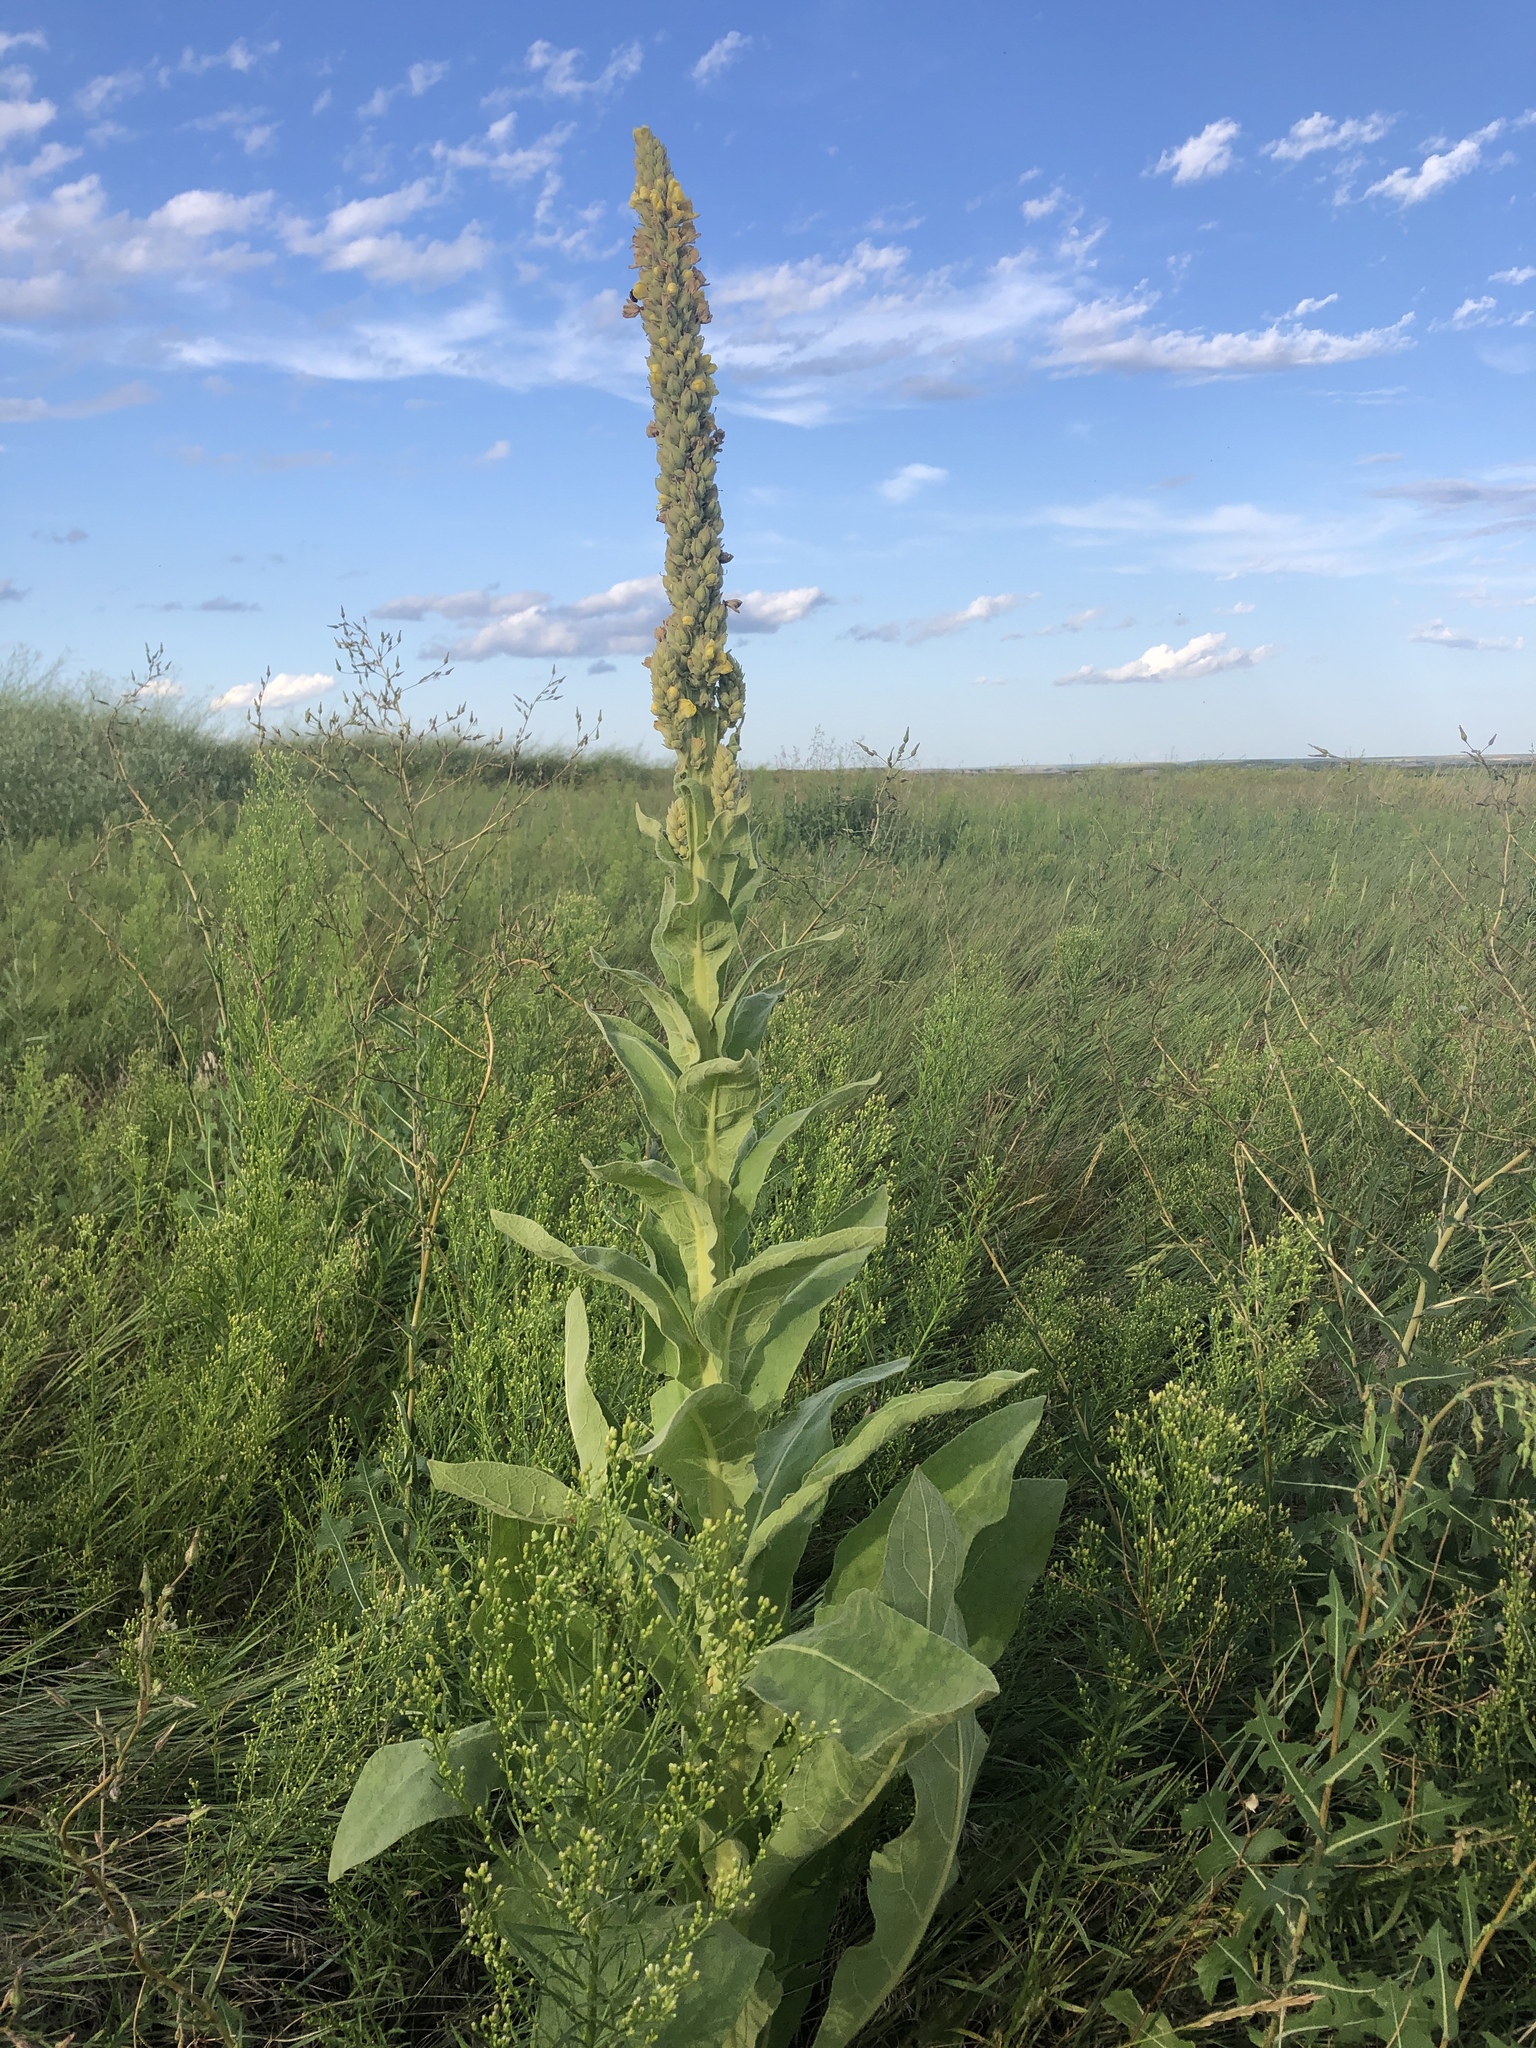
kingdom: Plantae
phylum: Tracheophyta
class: Magnoliopsida
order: Lamiales
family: Scrophulariaceae
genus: Verbascum
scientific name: Verbascum thapsus
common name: Common mullein
